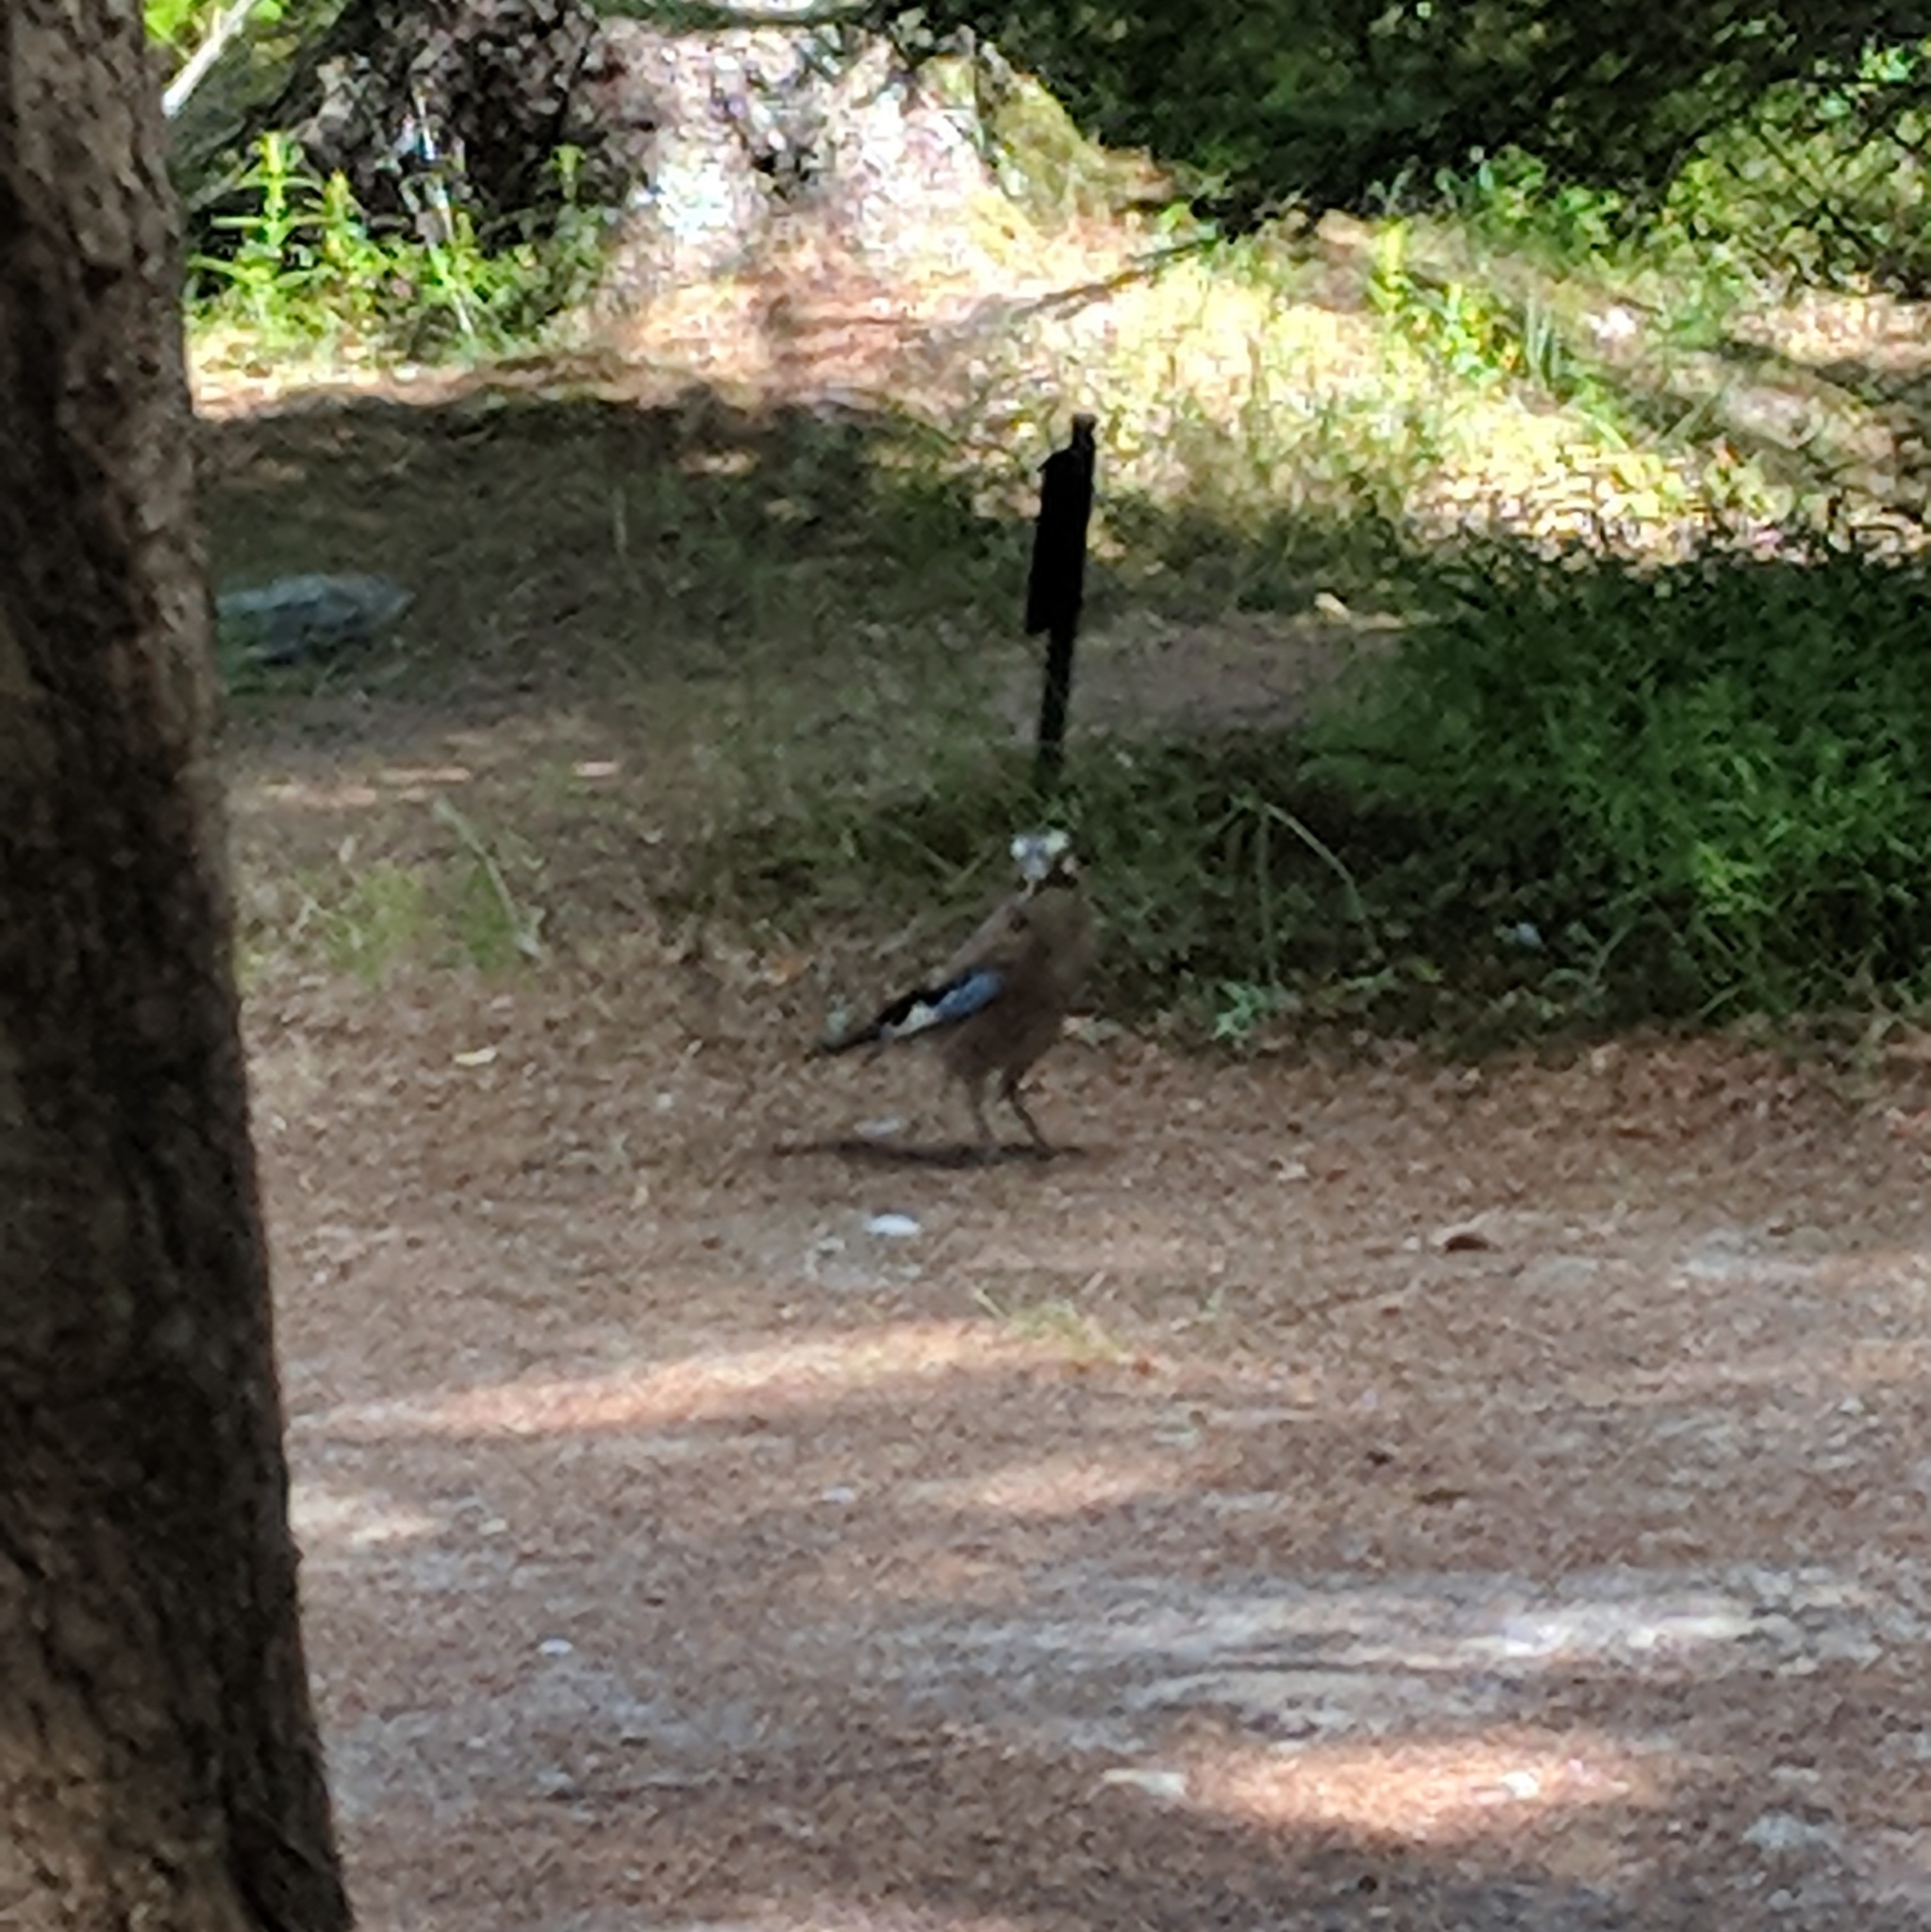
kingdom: Animalia
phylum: Chordata
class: Aves
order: Passeriformes
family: Corvidae
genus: Garrulus
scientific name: Garrulus glandarius
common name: Eurasian jay
